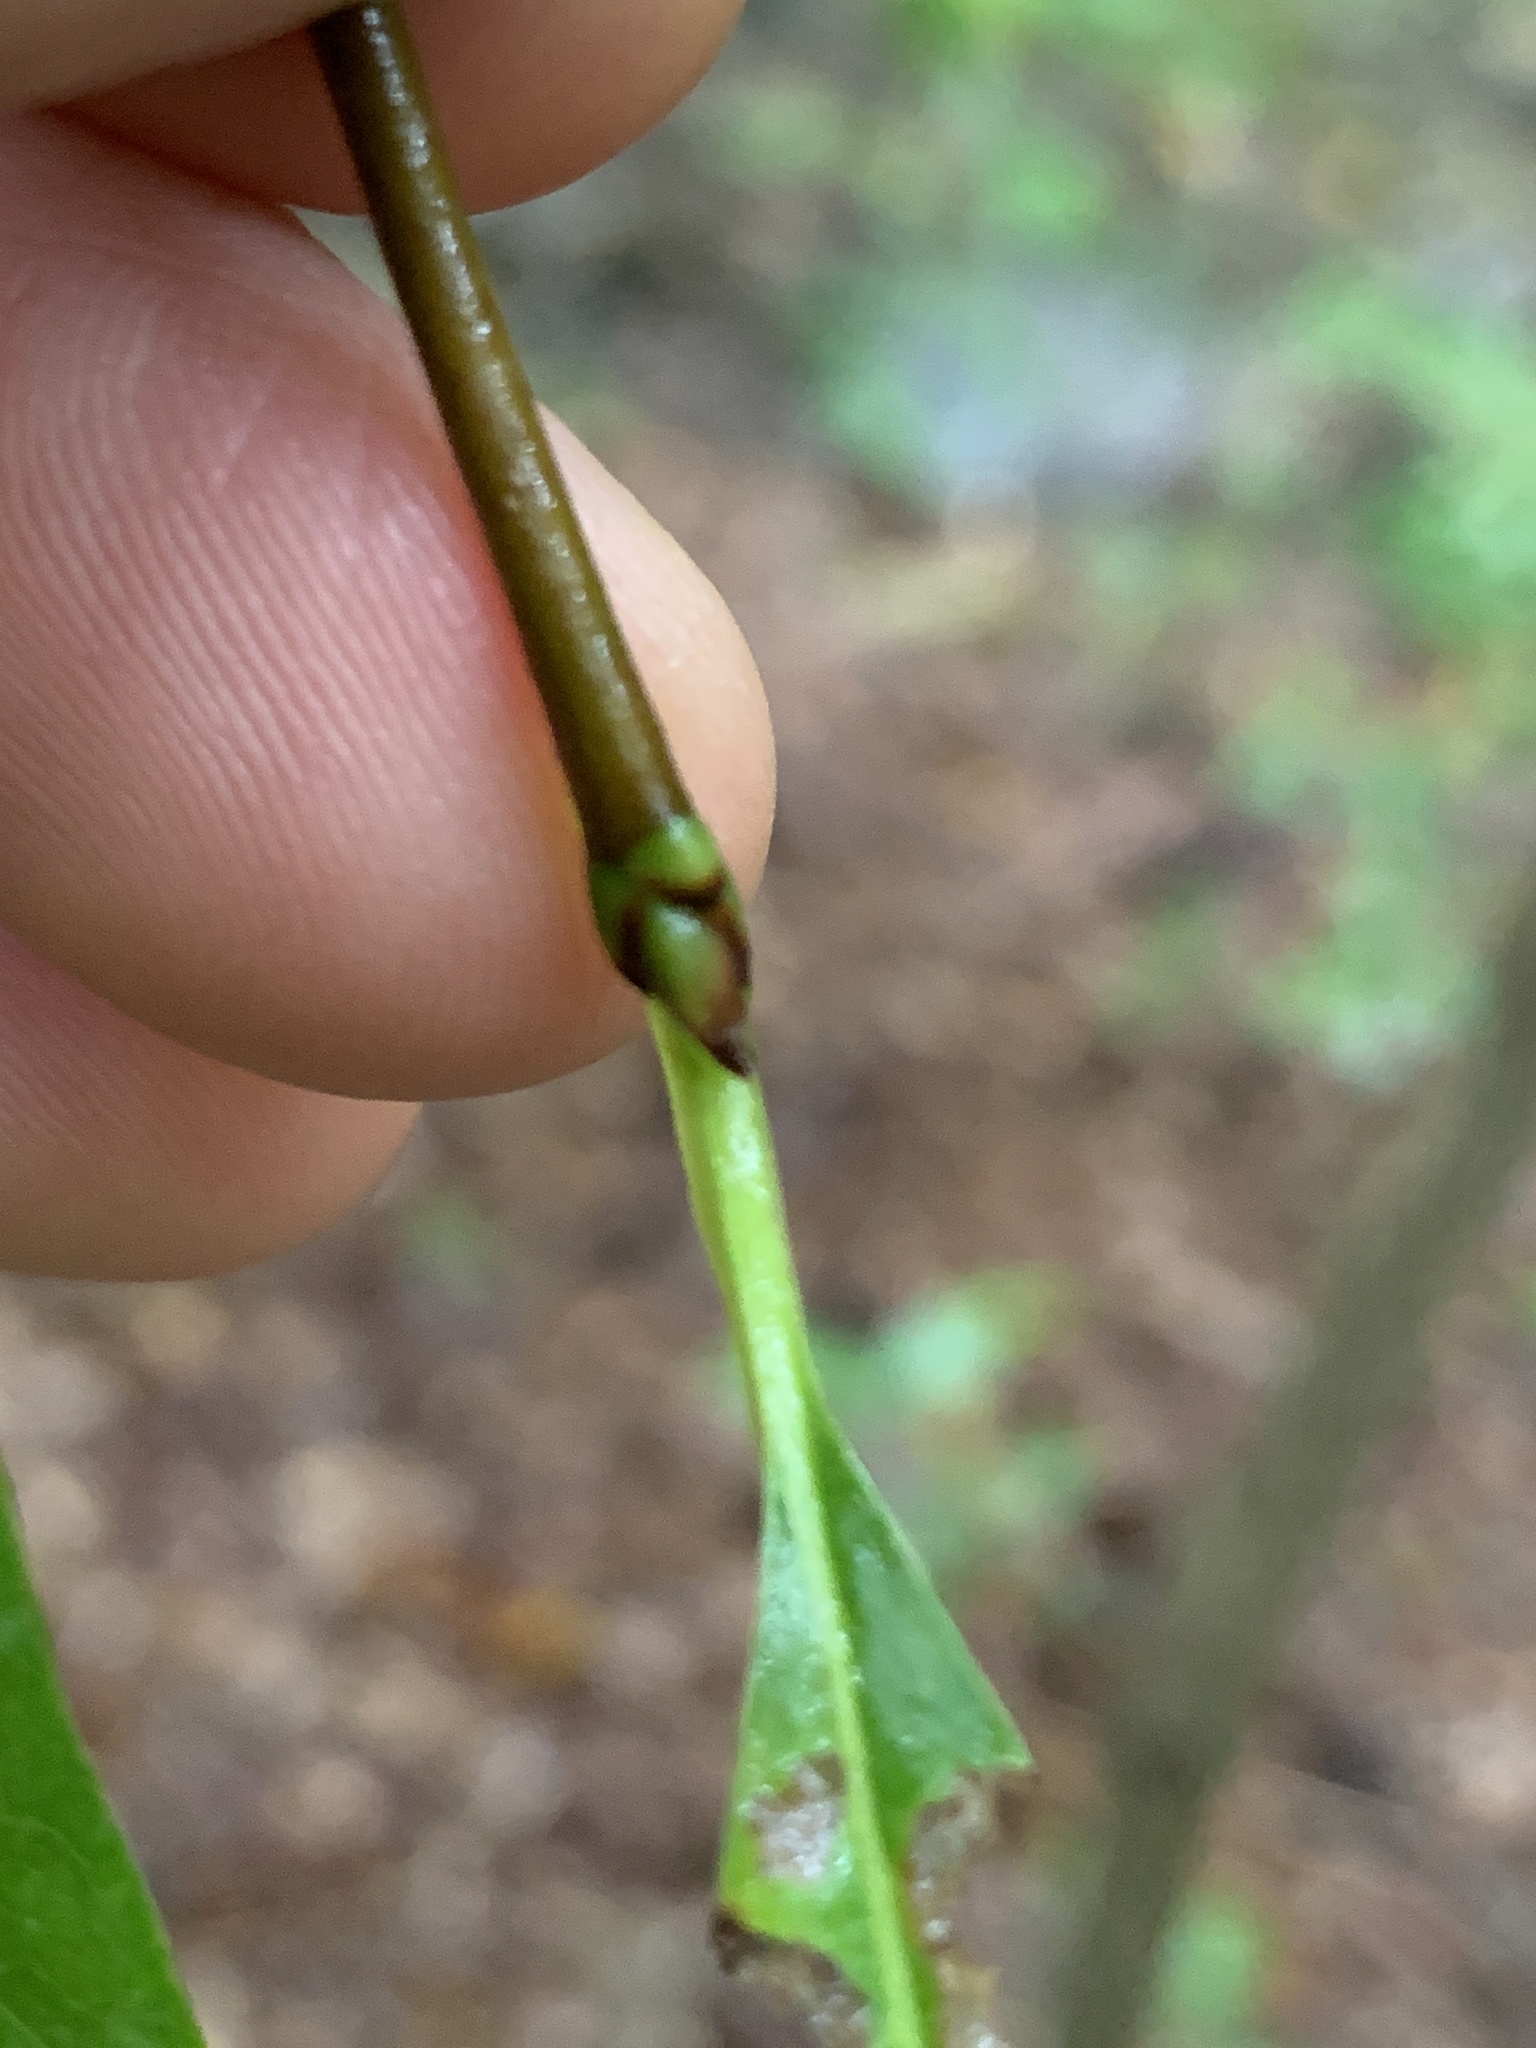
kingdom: Plantae
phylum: Tracheophyta
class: Magnoliopsida
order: Cornales
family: Nyssaceae
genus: Nyssa
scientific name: Nyssa sylvatica
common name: Black tupelo
